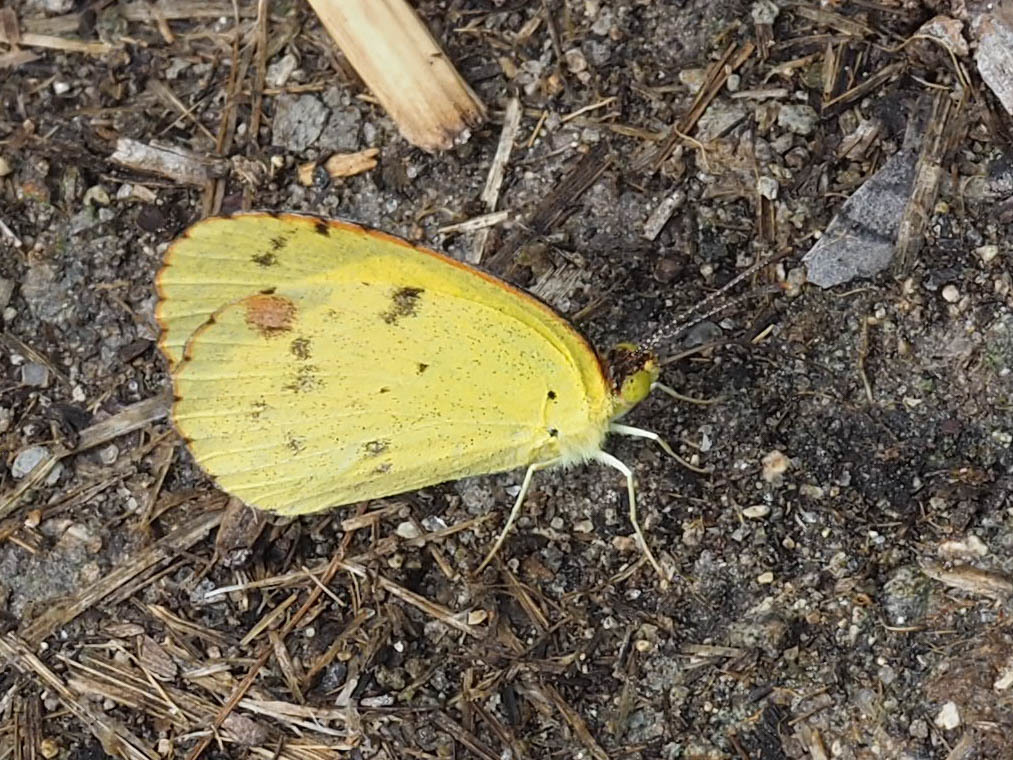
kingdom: Animalia
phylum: Arthropoda
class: Insecta
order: Lepidoptera
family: Pieridae
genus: Pyrisitia
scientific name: Pyrisitia lisa
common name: Little yellow
